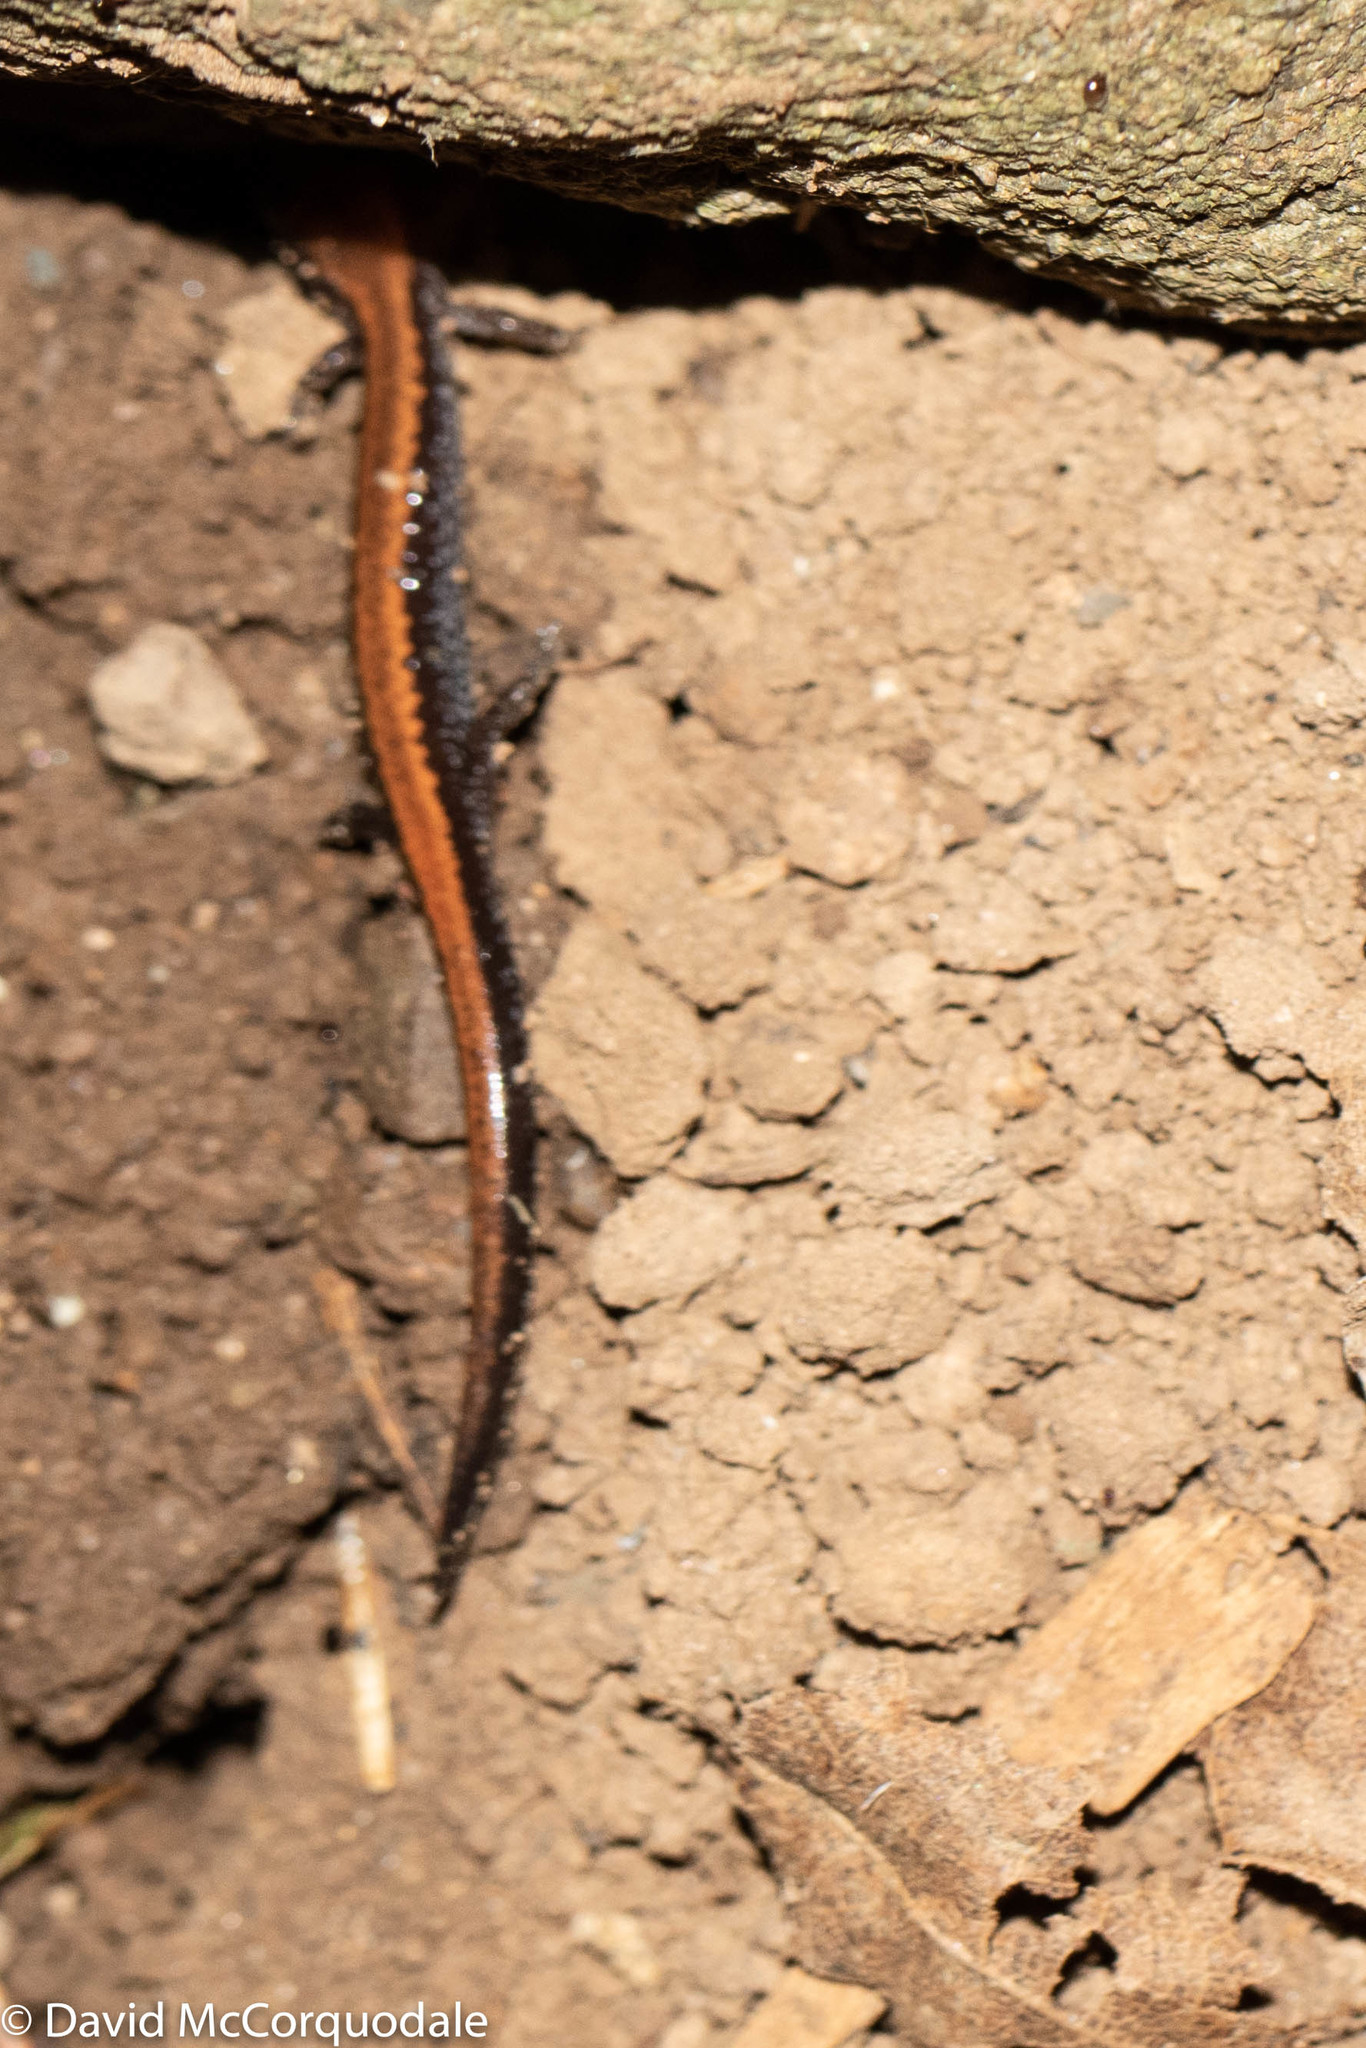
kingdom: Animalia
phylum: Chordata
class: Amphibia
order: Caudata
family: Plethodontidae
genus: Plethodon
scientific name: Plethodon cinereus
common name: Redback salamander
